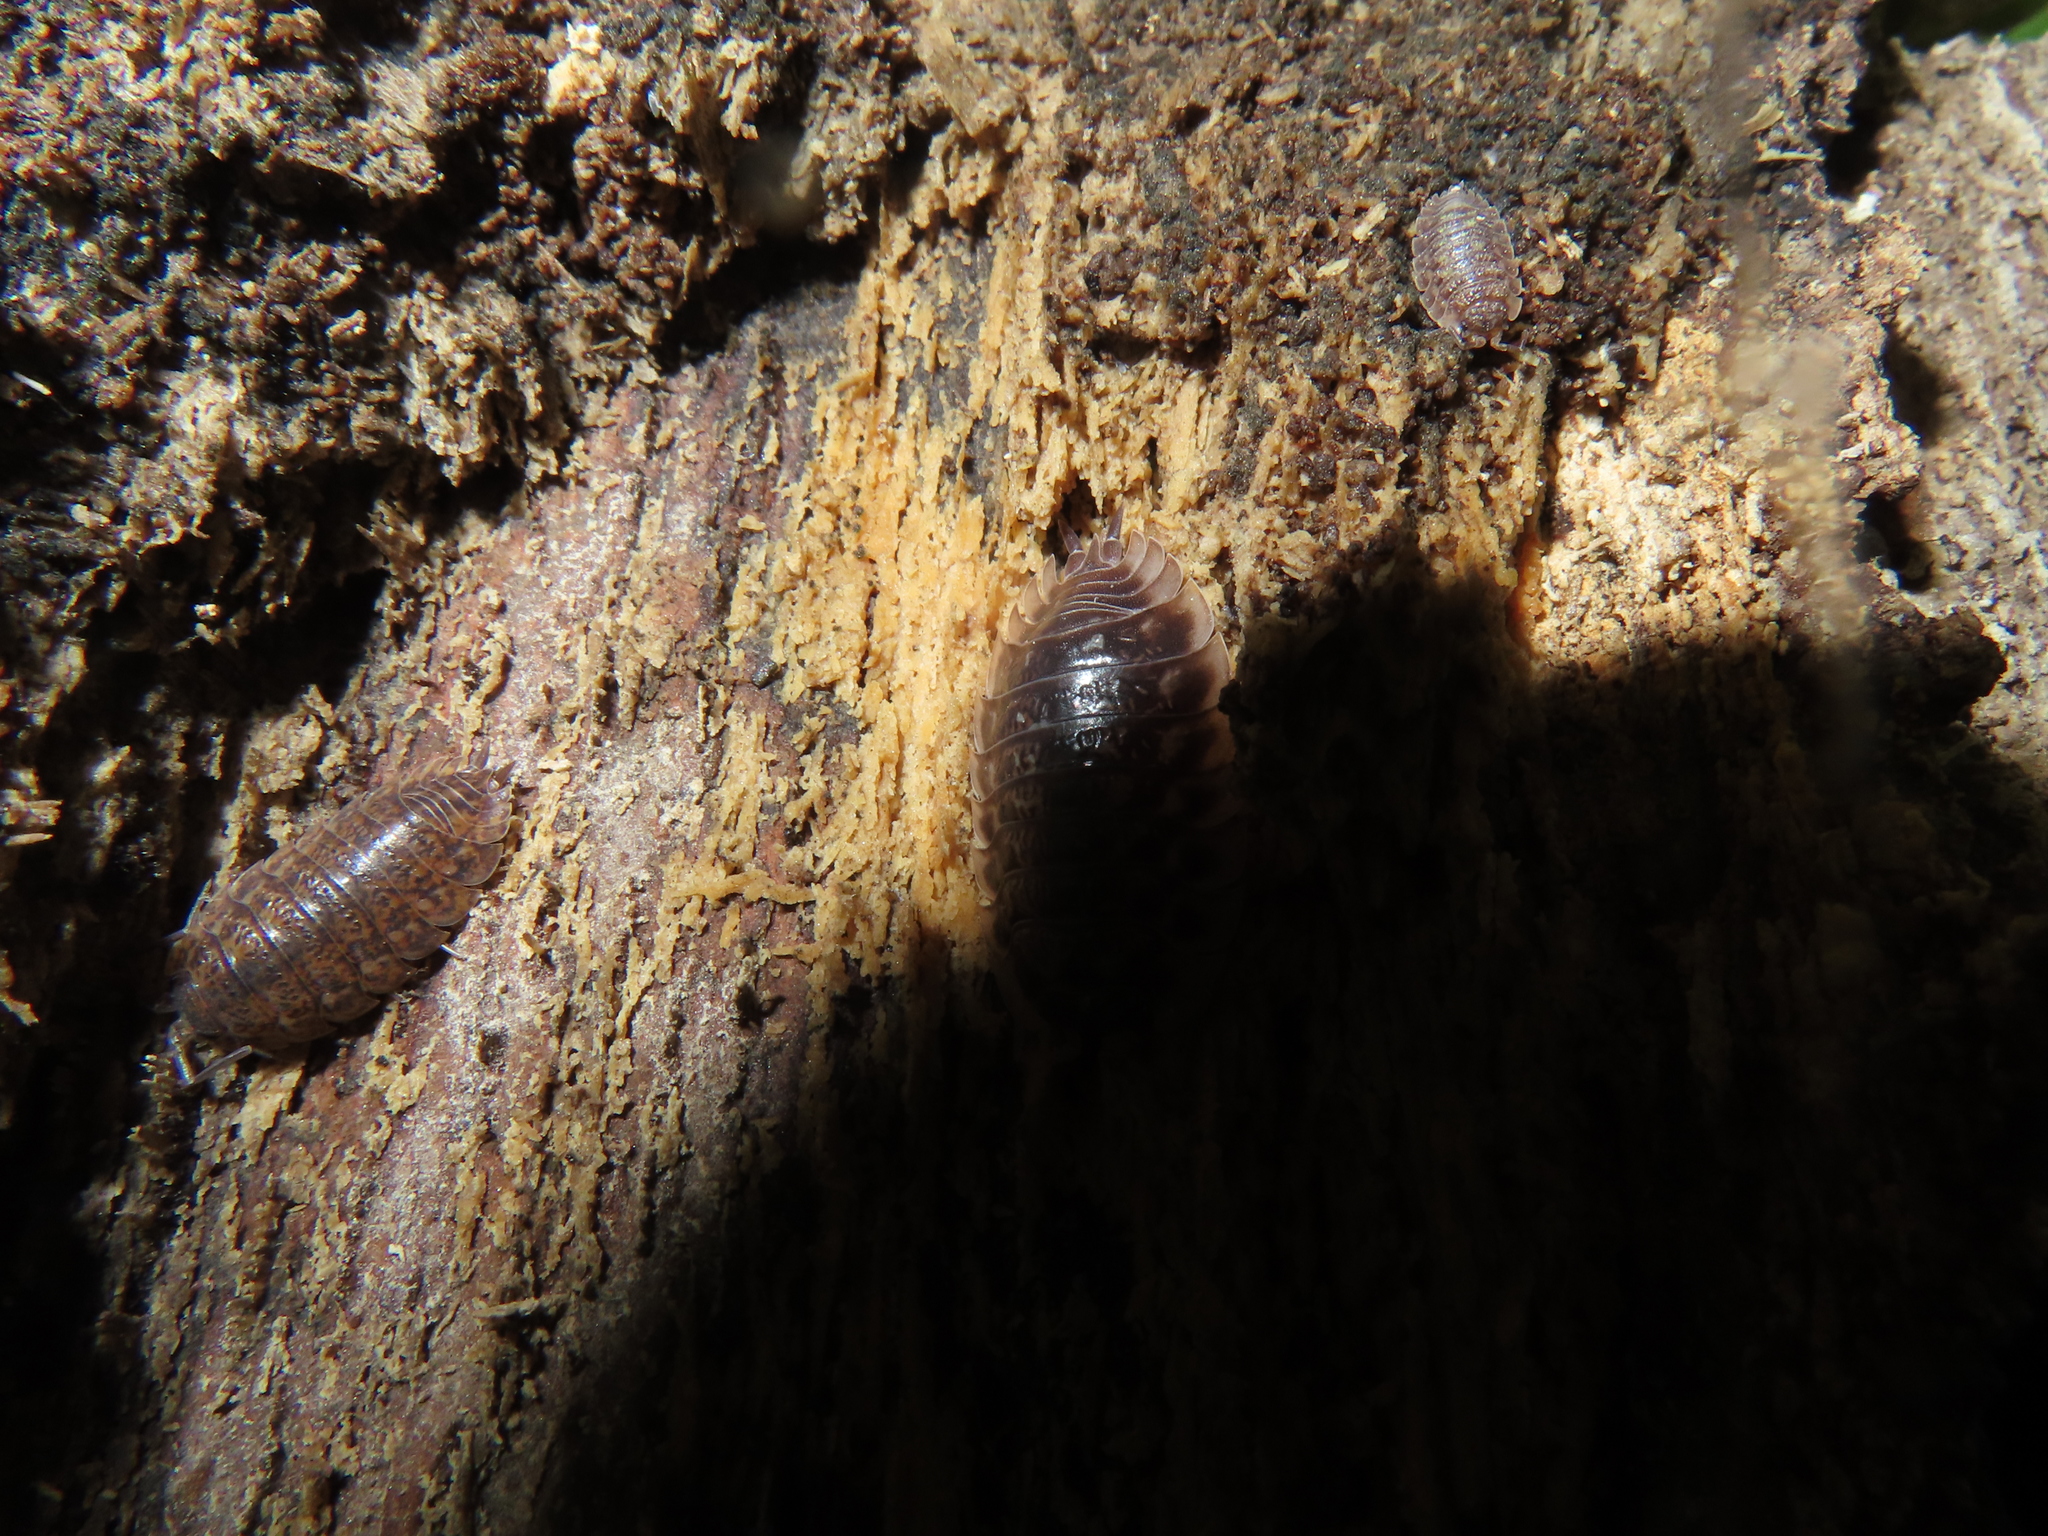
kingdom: Animalia
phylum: Arthropoda
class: Malacostraca
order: Isopoda
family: Oniscidae
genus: Oniscus
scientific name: Oniscus asellus
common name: Common shiny woodlouse
